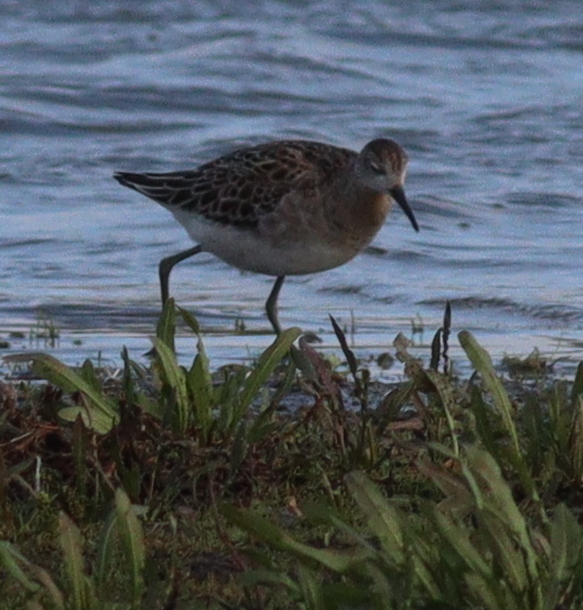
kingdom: Animalia
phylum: Chordata
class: Aves
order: Charadriiformes
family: Scolopacidae
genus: Calidris
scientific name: Calidris pugnax
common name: Ruff
